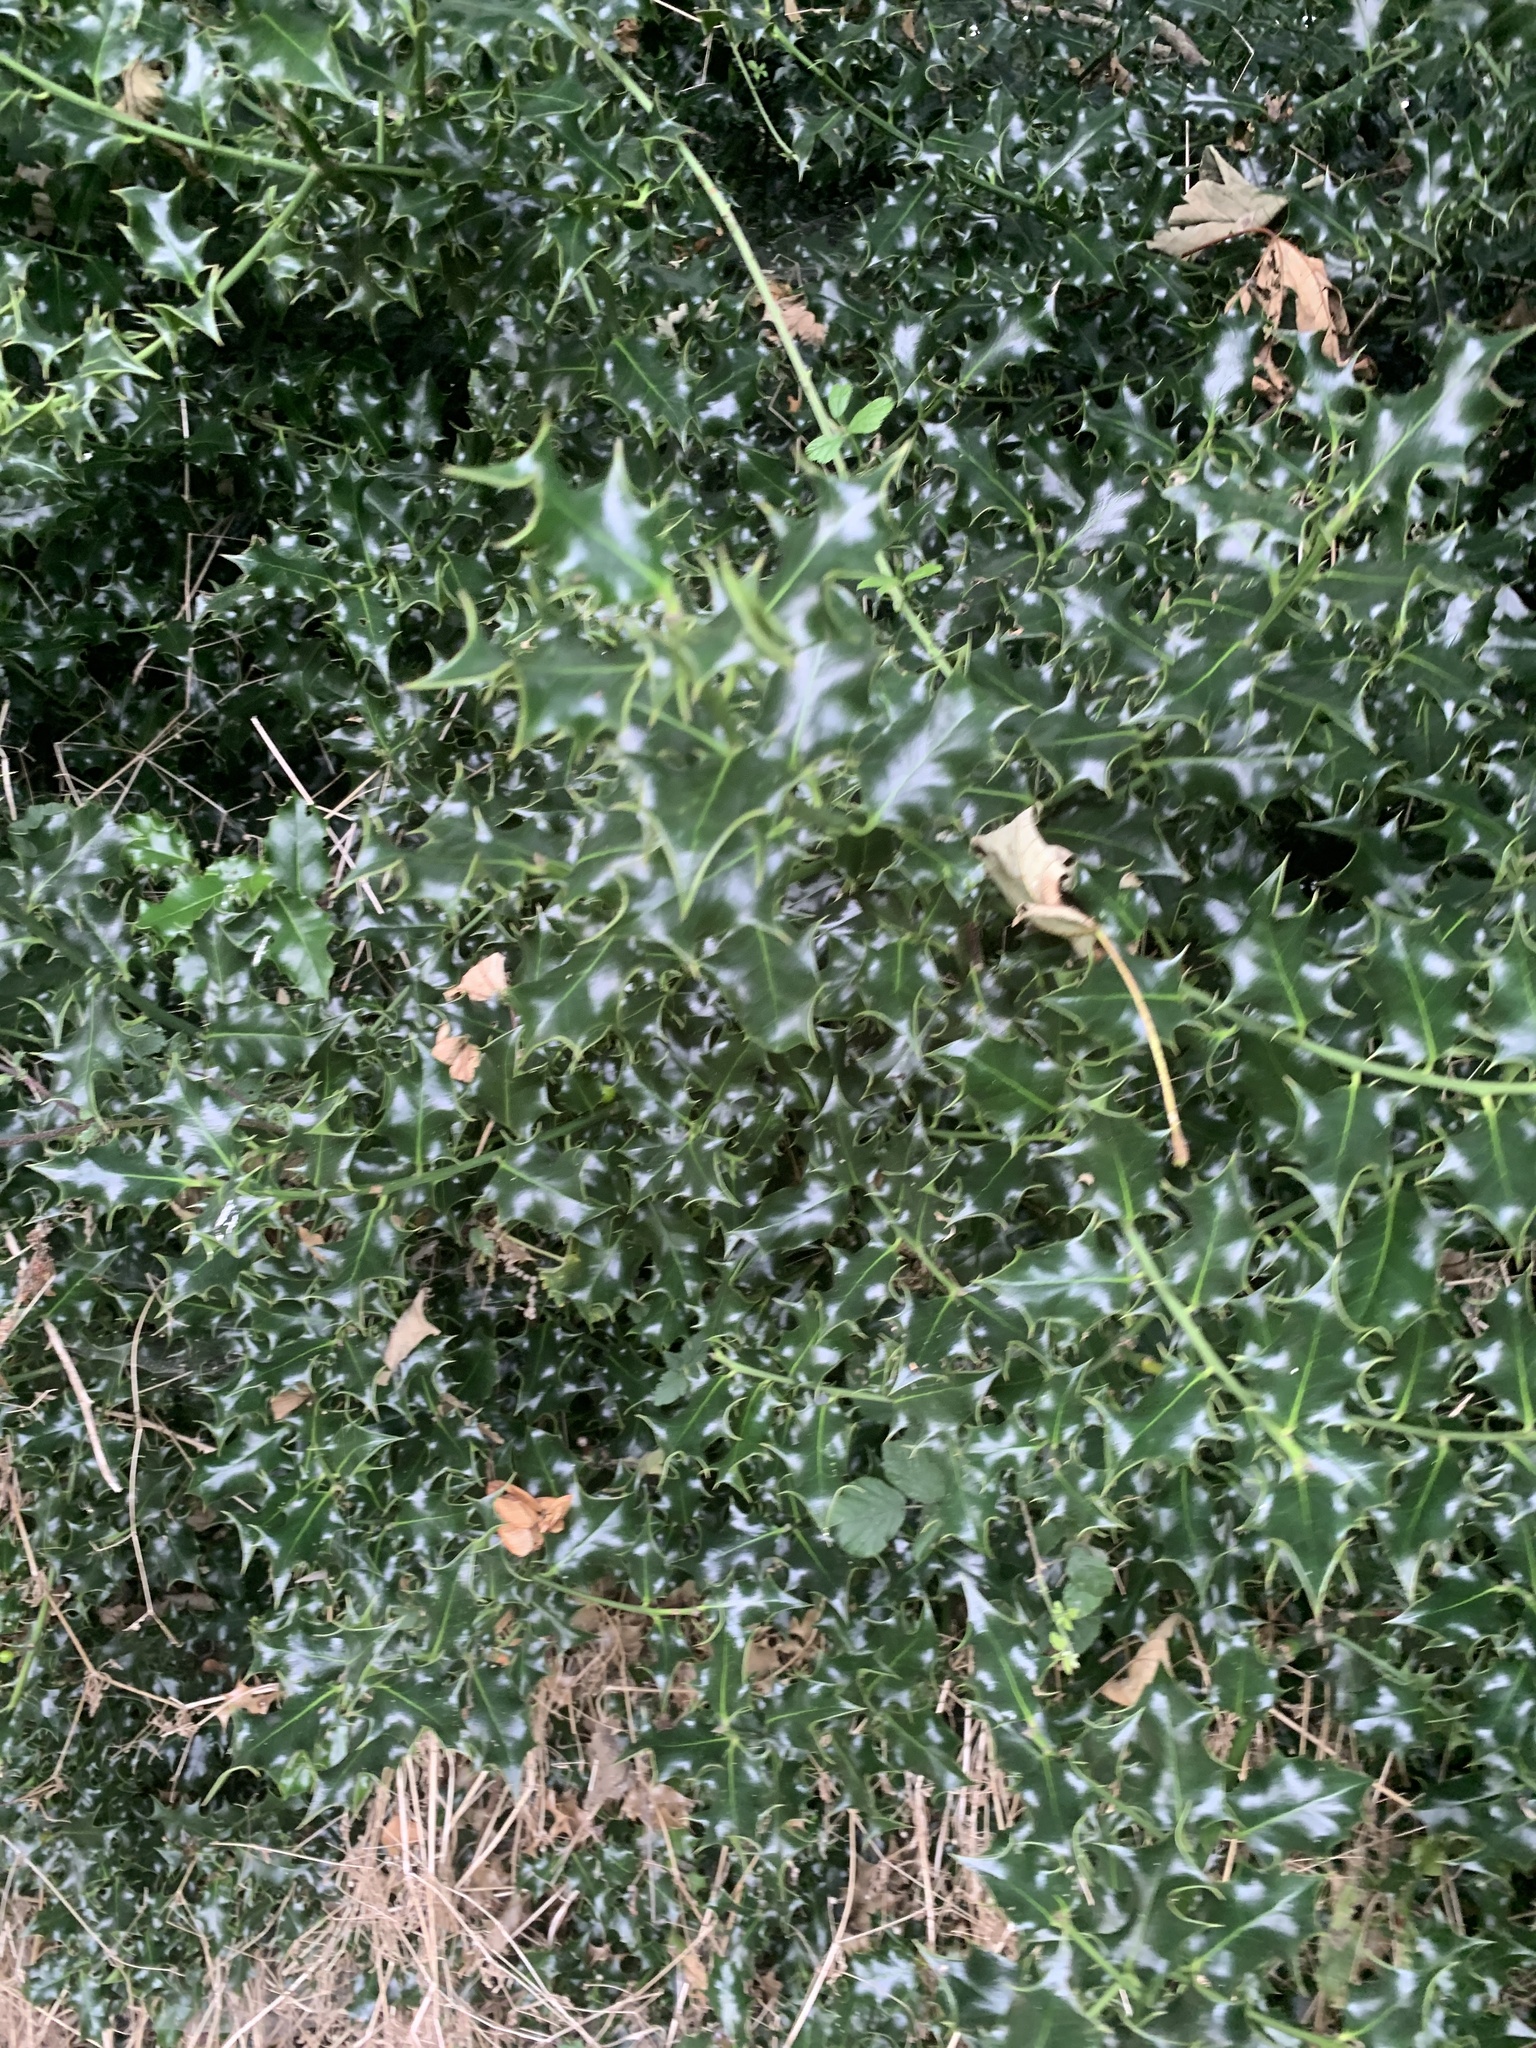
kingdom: Plantae
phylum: Tracheophyta
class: Magnoliopsida
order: Aquifoliales
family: Aquifoliaceae
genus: Ilex
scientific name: Ilex aquifolium
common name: English holly
